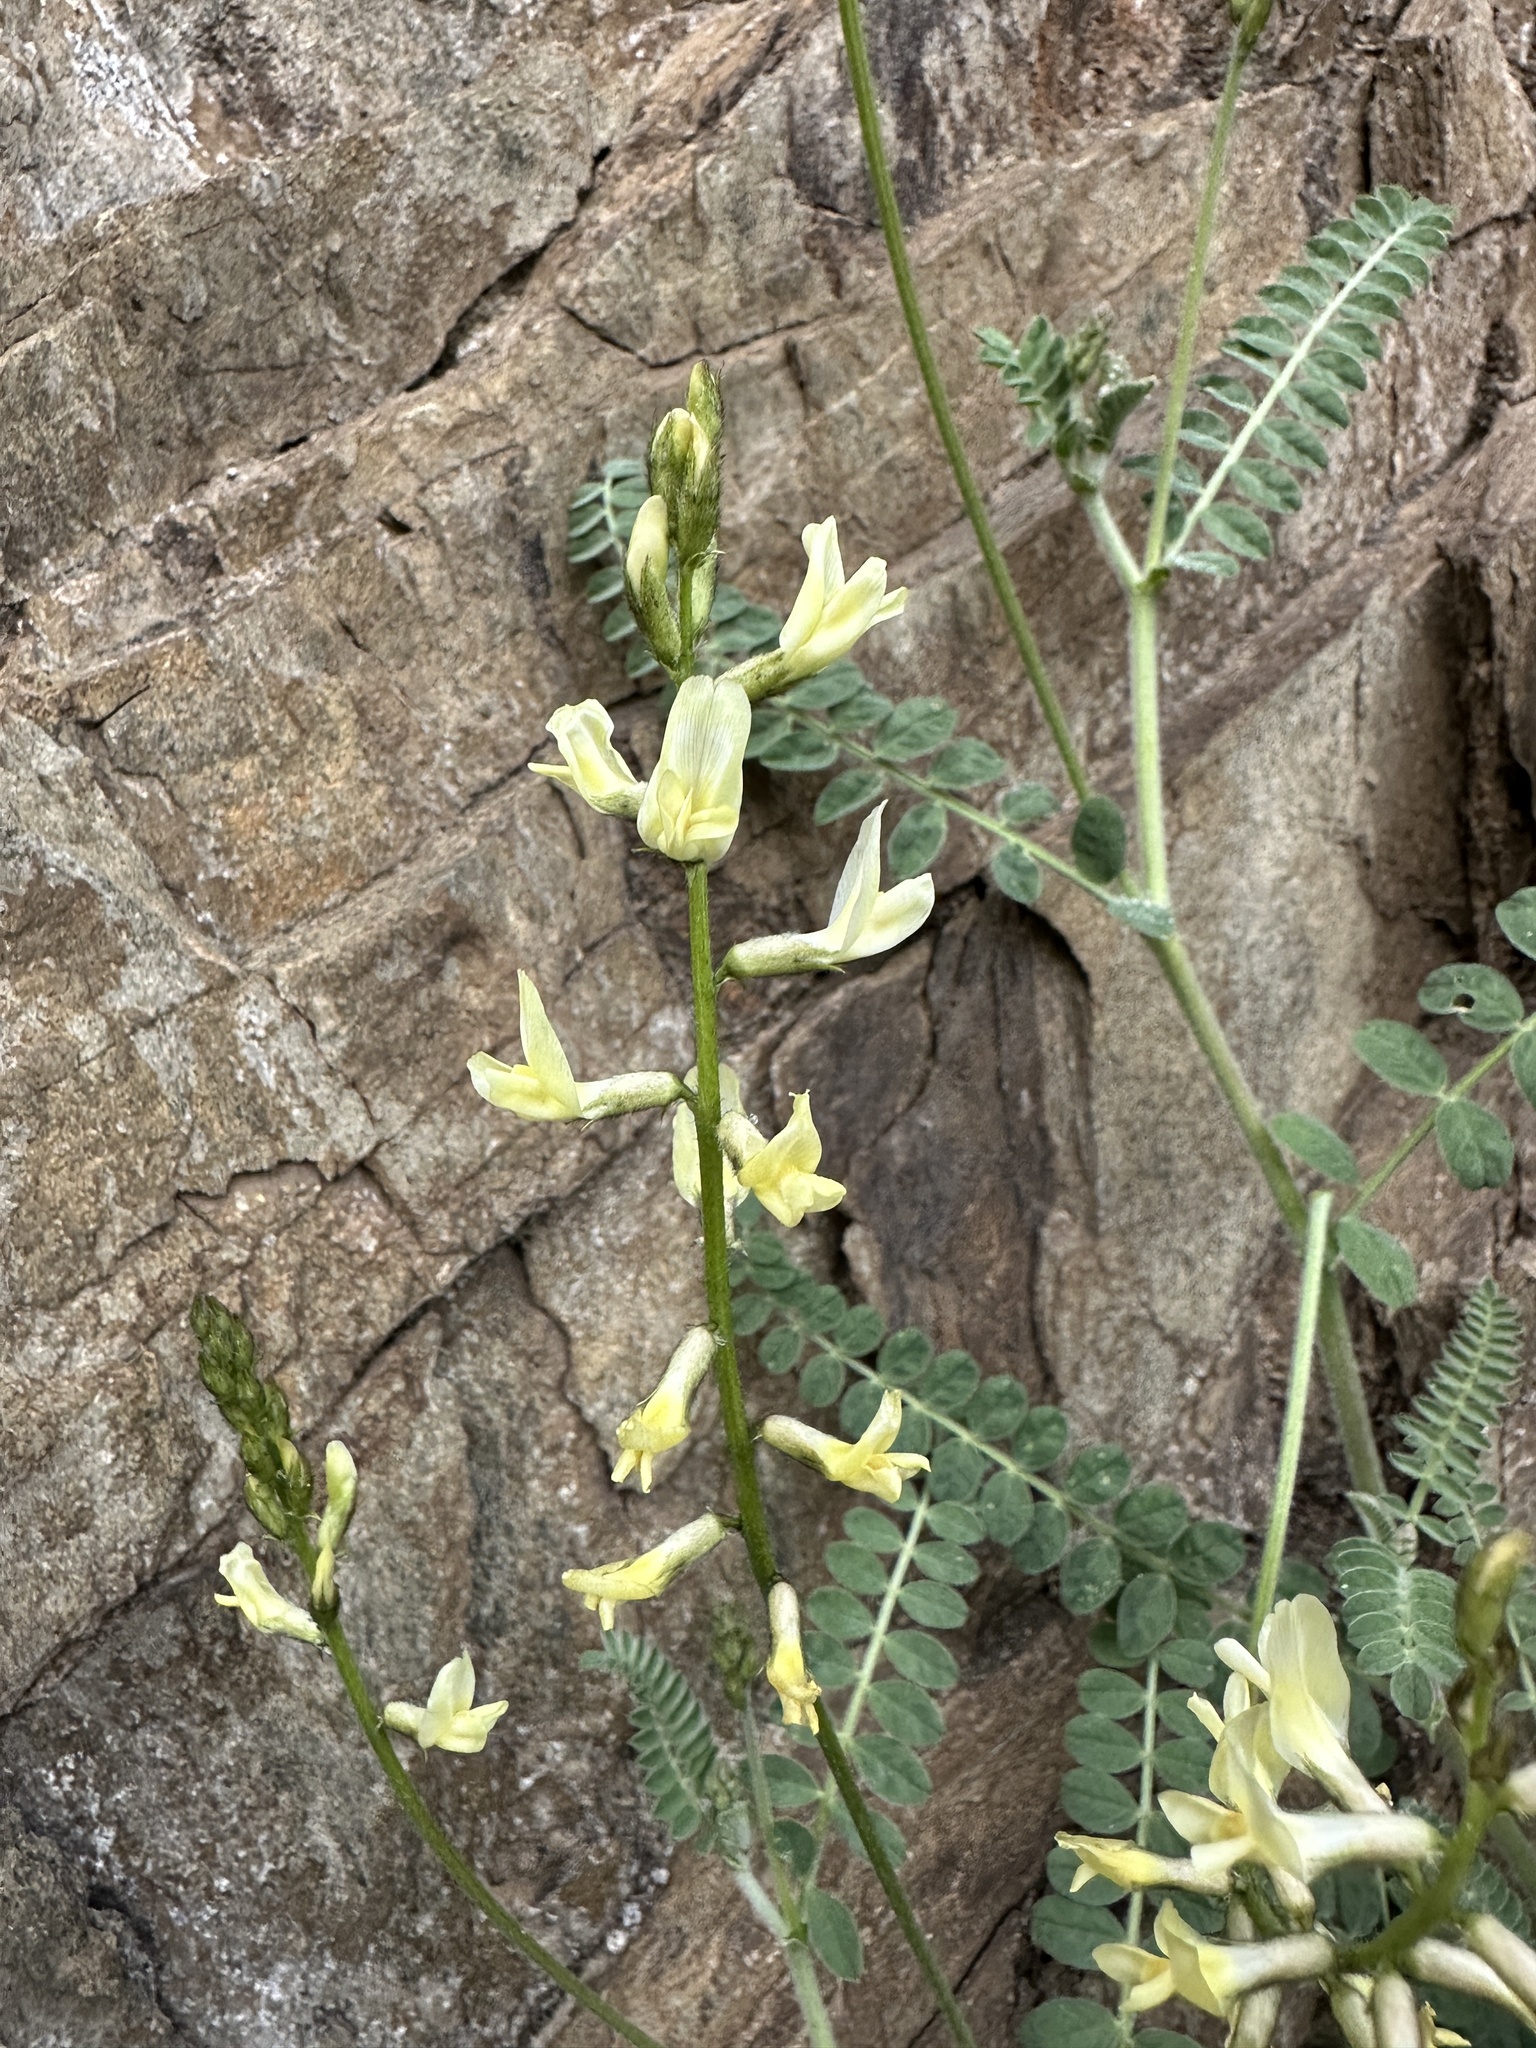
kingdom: Plantae
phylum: Tracheophyta
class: Magnoliopsida
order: Fabales
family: Fabaceae
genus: Astragalus
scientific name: Astragalus congdonii
